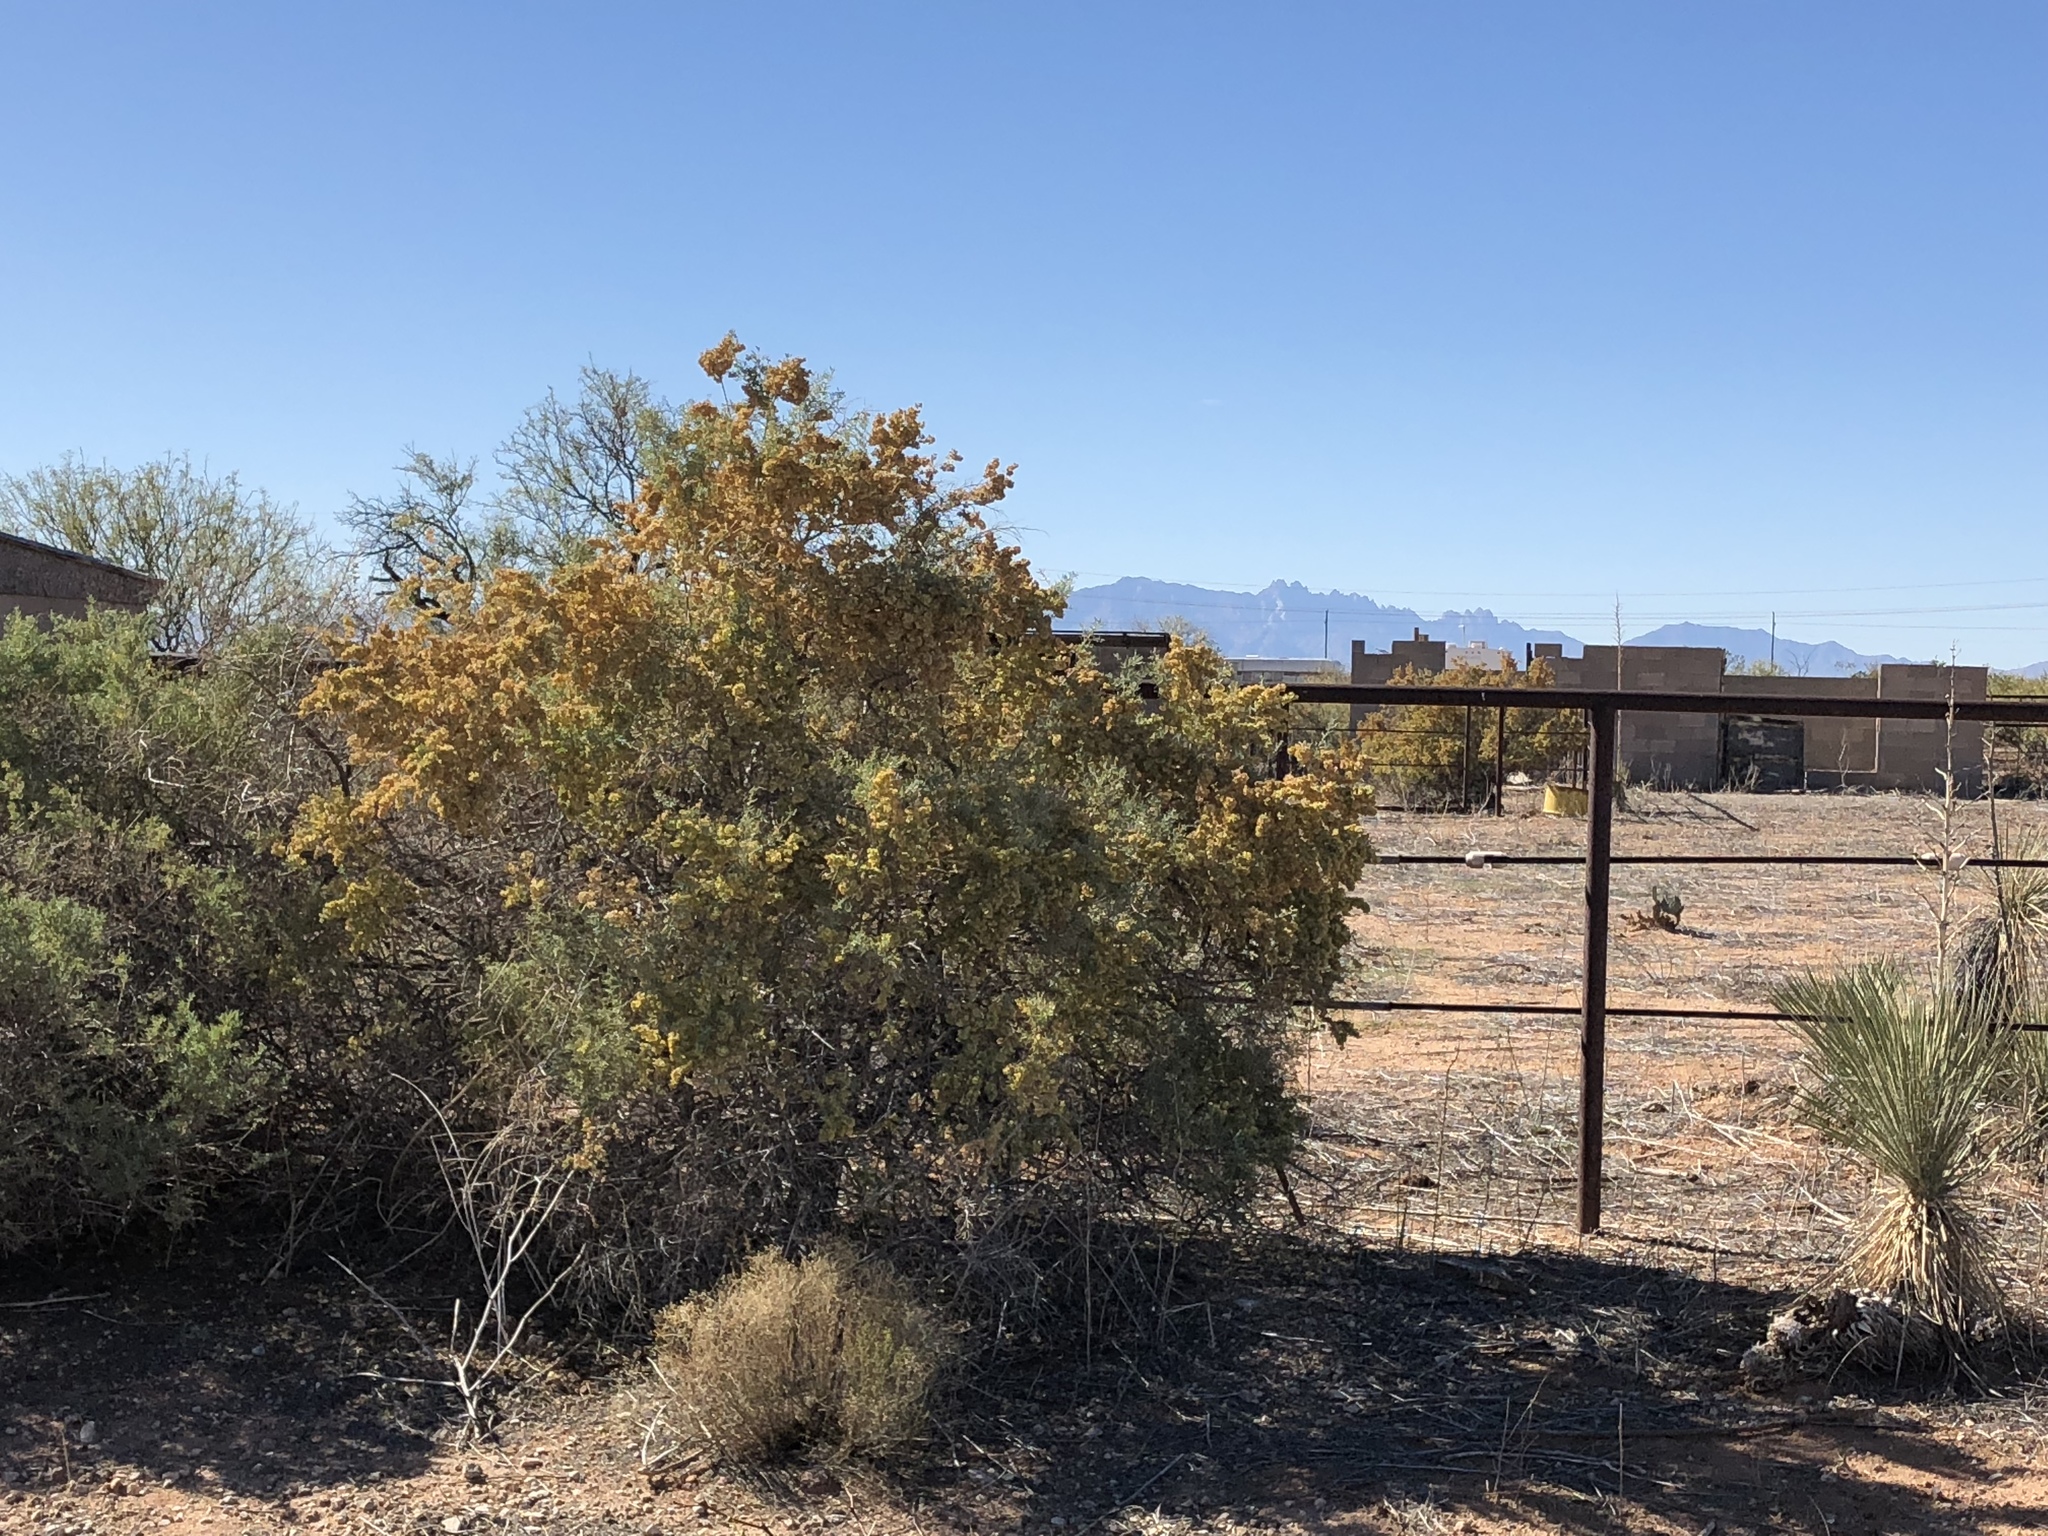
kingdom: Plantae
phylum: Tracheophyta
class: Magnoliopsida
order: Caryophyllales
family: Amaranthaceae
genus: Atriplex
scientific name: Atriplex canescens
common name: Four-wing saltbush
